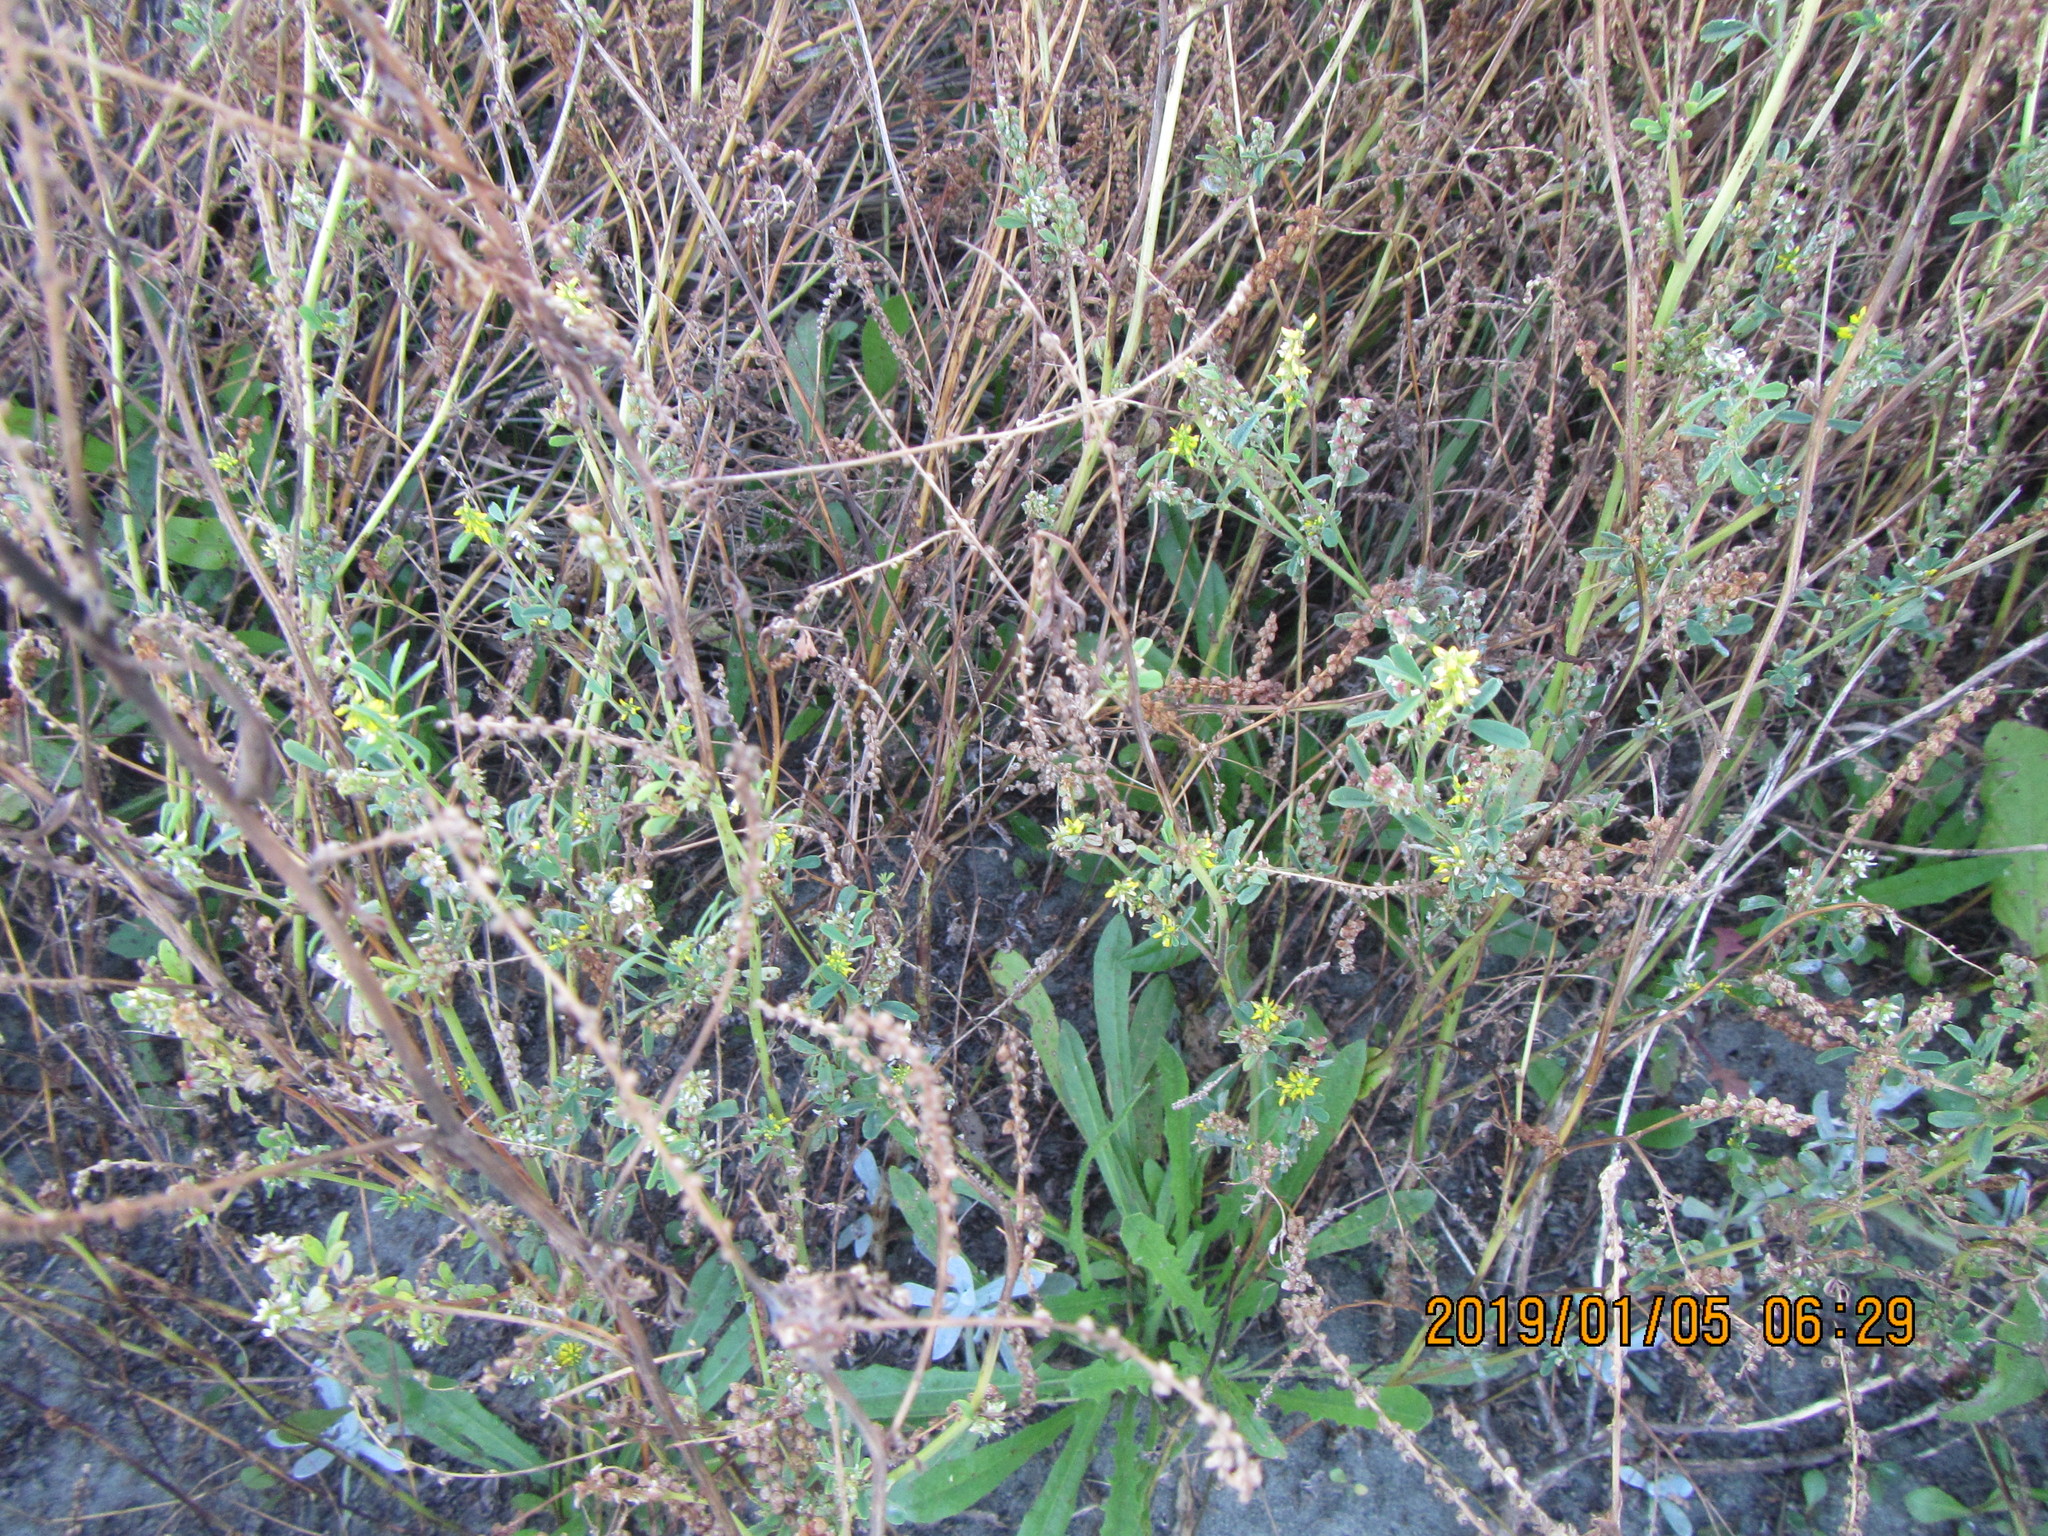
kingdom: Plantae
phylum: Tracheophyta
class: Magnoliopsida
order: Fabales
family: Fabaceae
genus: Melilotus
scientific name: Melilotus indicus
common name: Small melilot
